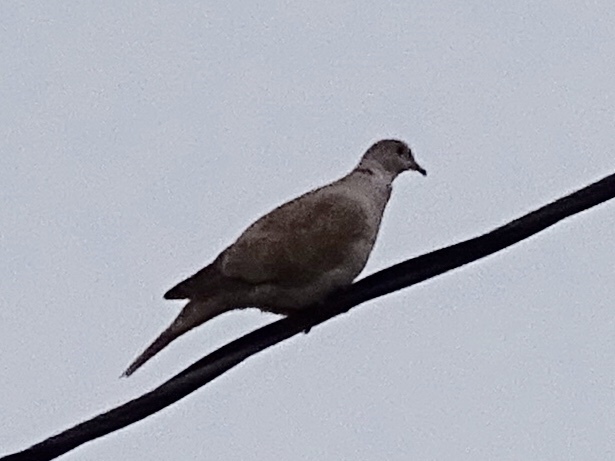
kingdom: Animalia
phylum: Chordata
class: Aves
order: Columbiformes
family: Columbidae
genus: Streptopelia
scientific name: Streptopelia decaocto
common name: Eurasian collared dove
